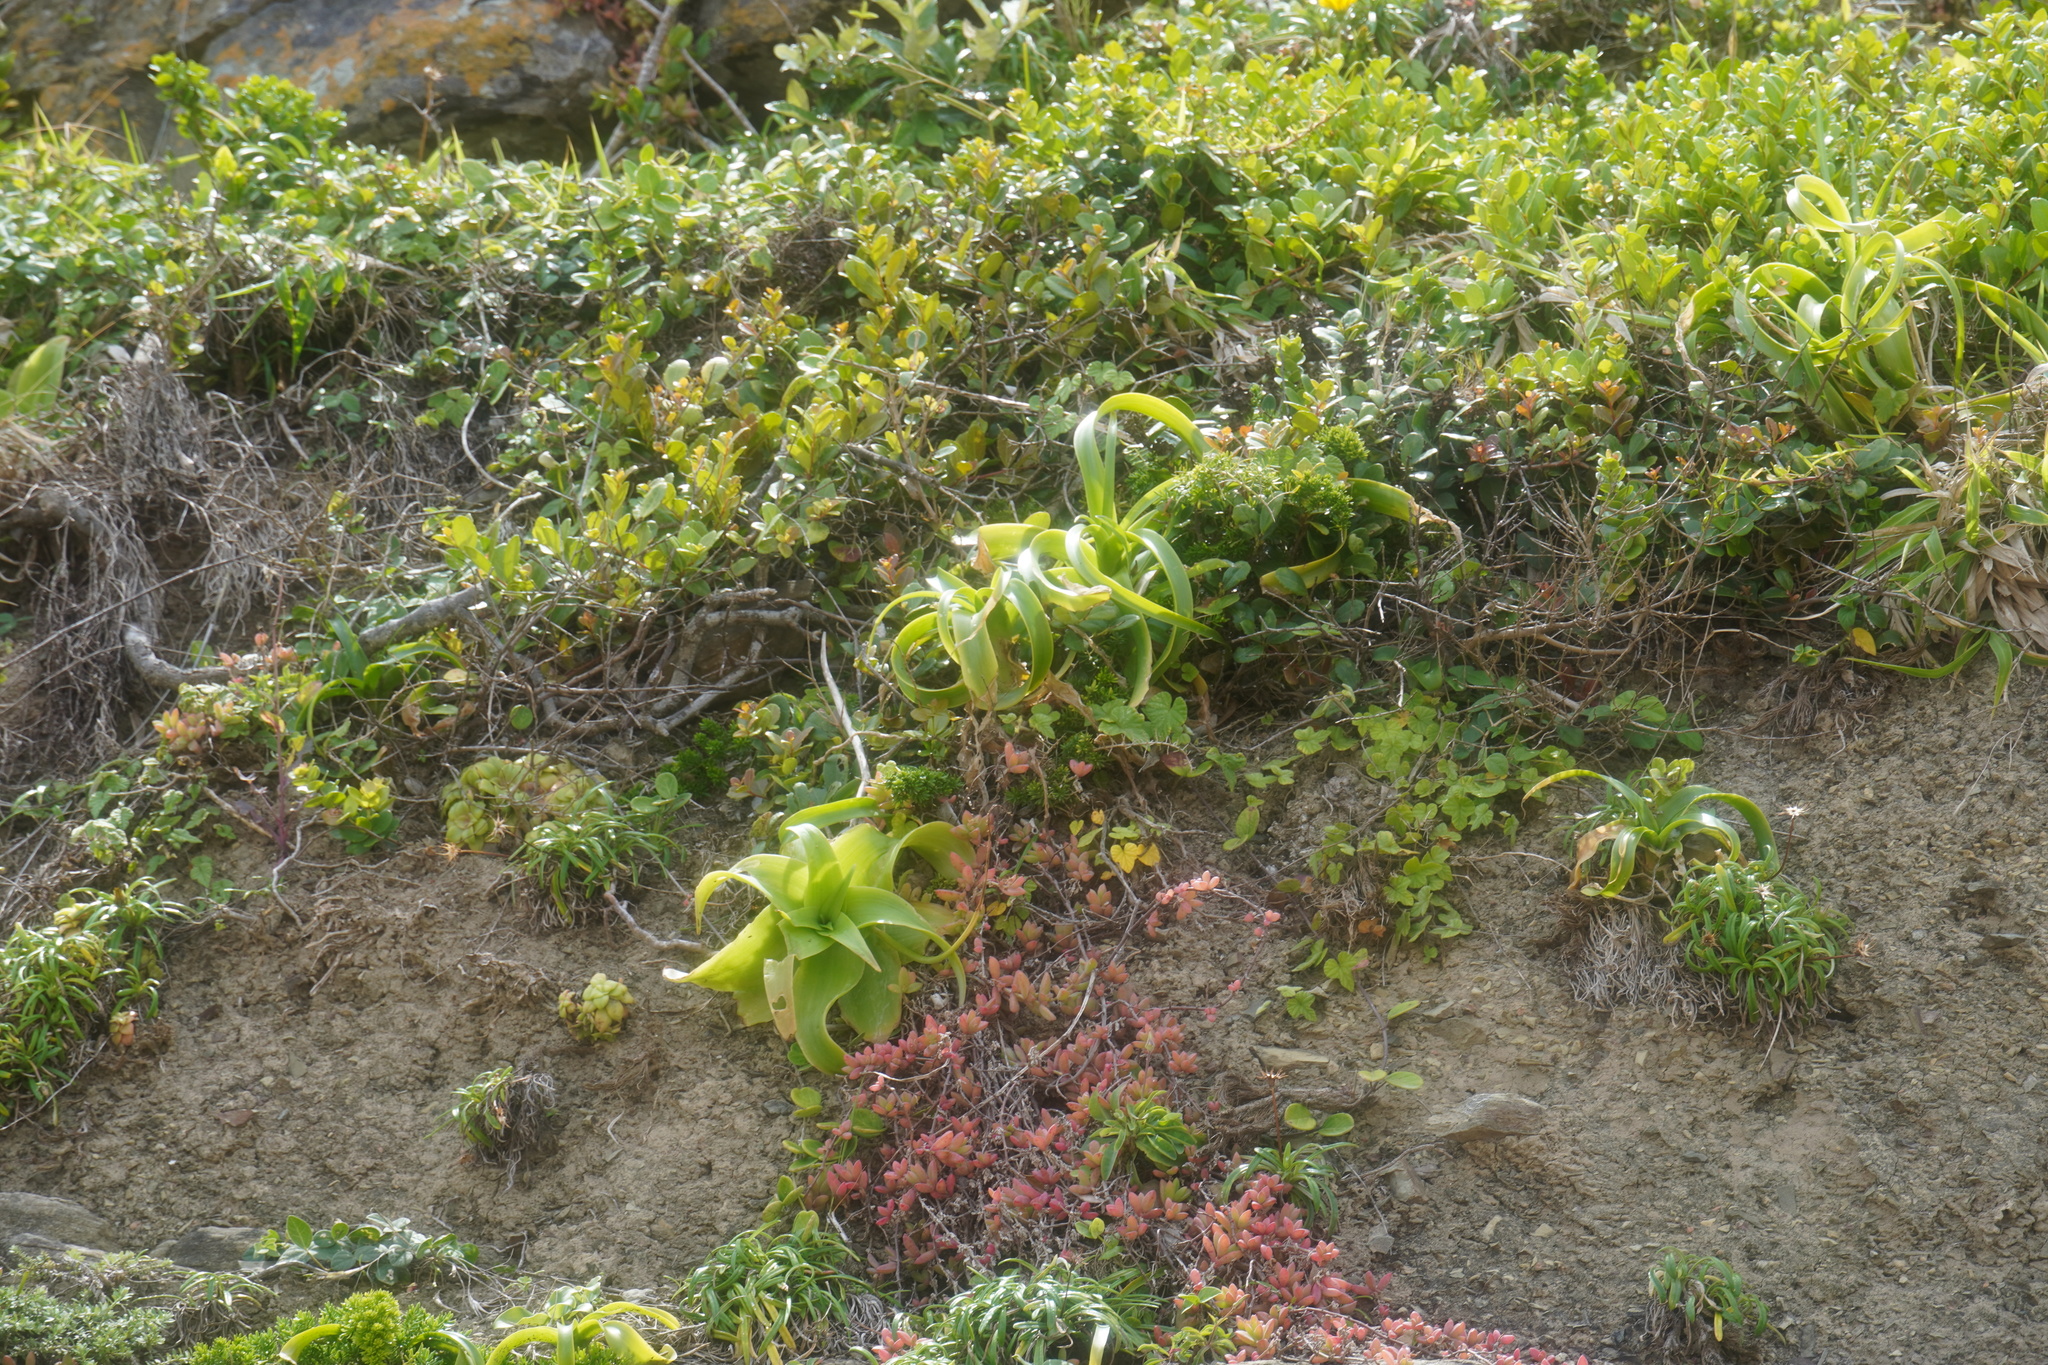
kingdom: Plantae
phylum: Tracheophyta
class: Liliopsida
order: Asparagales
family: Asphodelaceae
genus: Bulbine
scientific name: Bulbine latifolia
